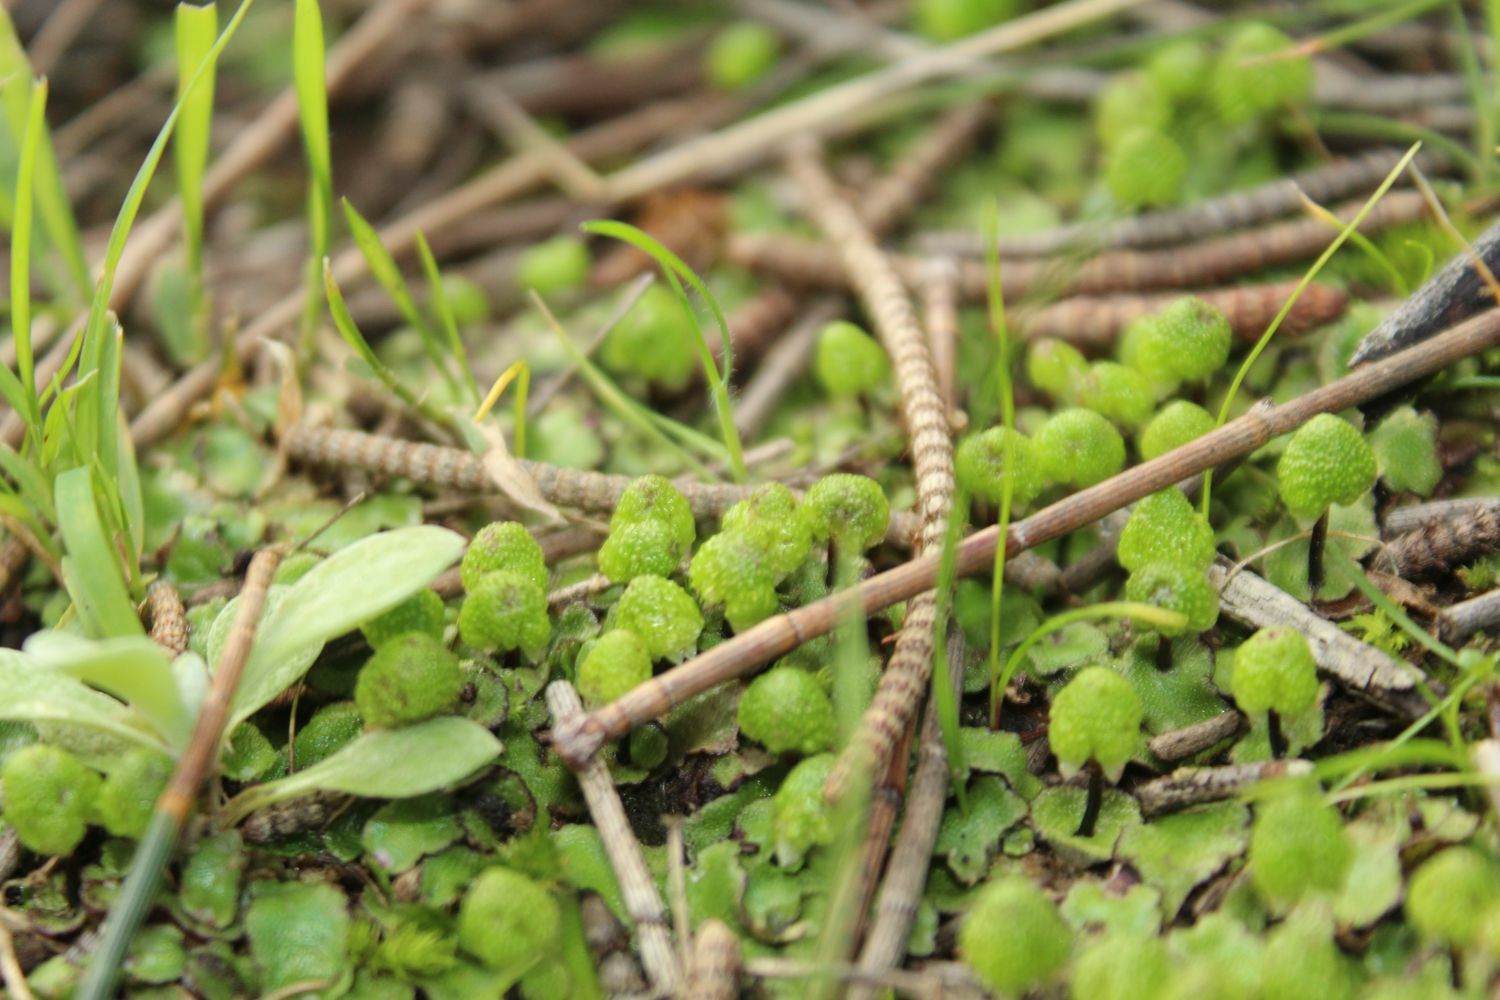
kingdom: Plantae
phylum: Marchantiophyta
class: Marchantiopsida
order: Marchantiales
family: Aytoniaceae
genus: Asterella
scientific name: Asterella drummondii
